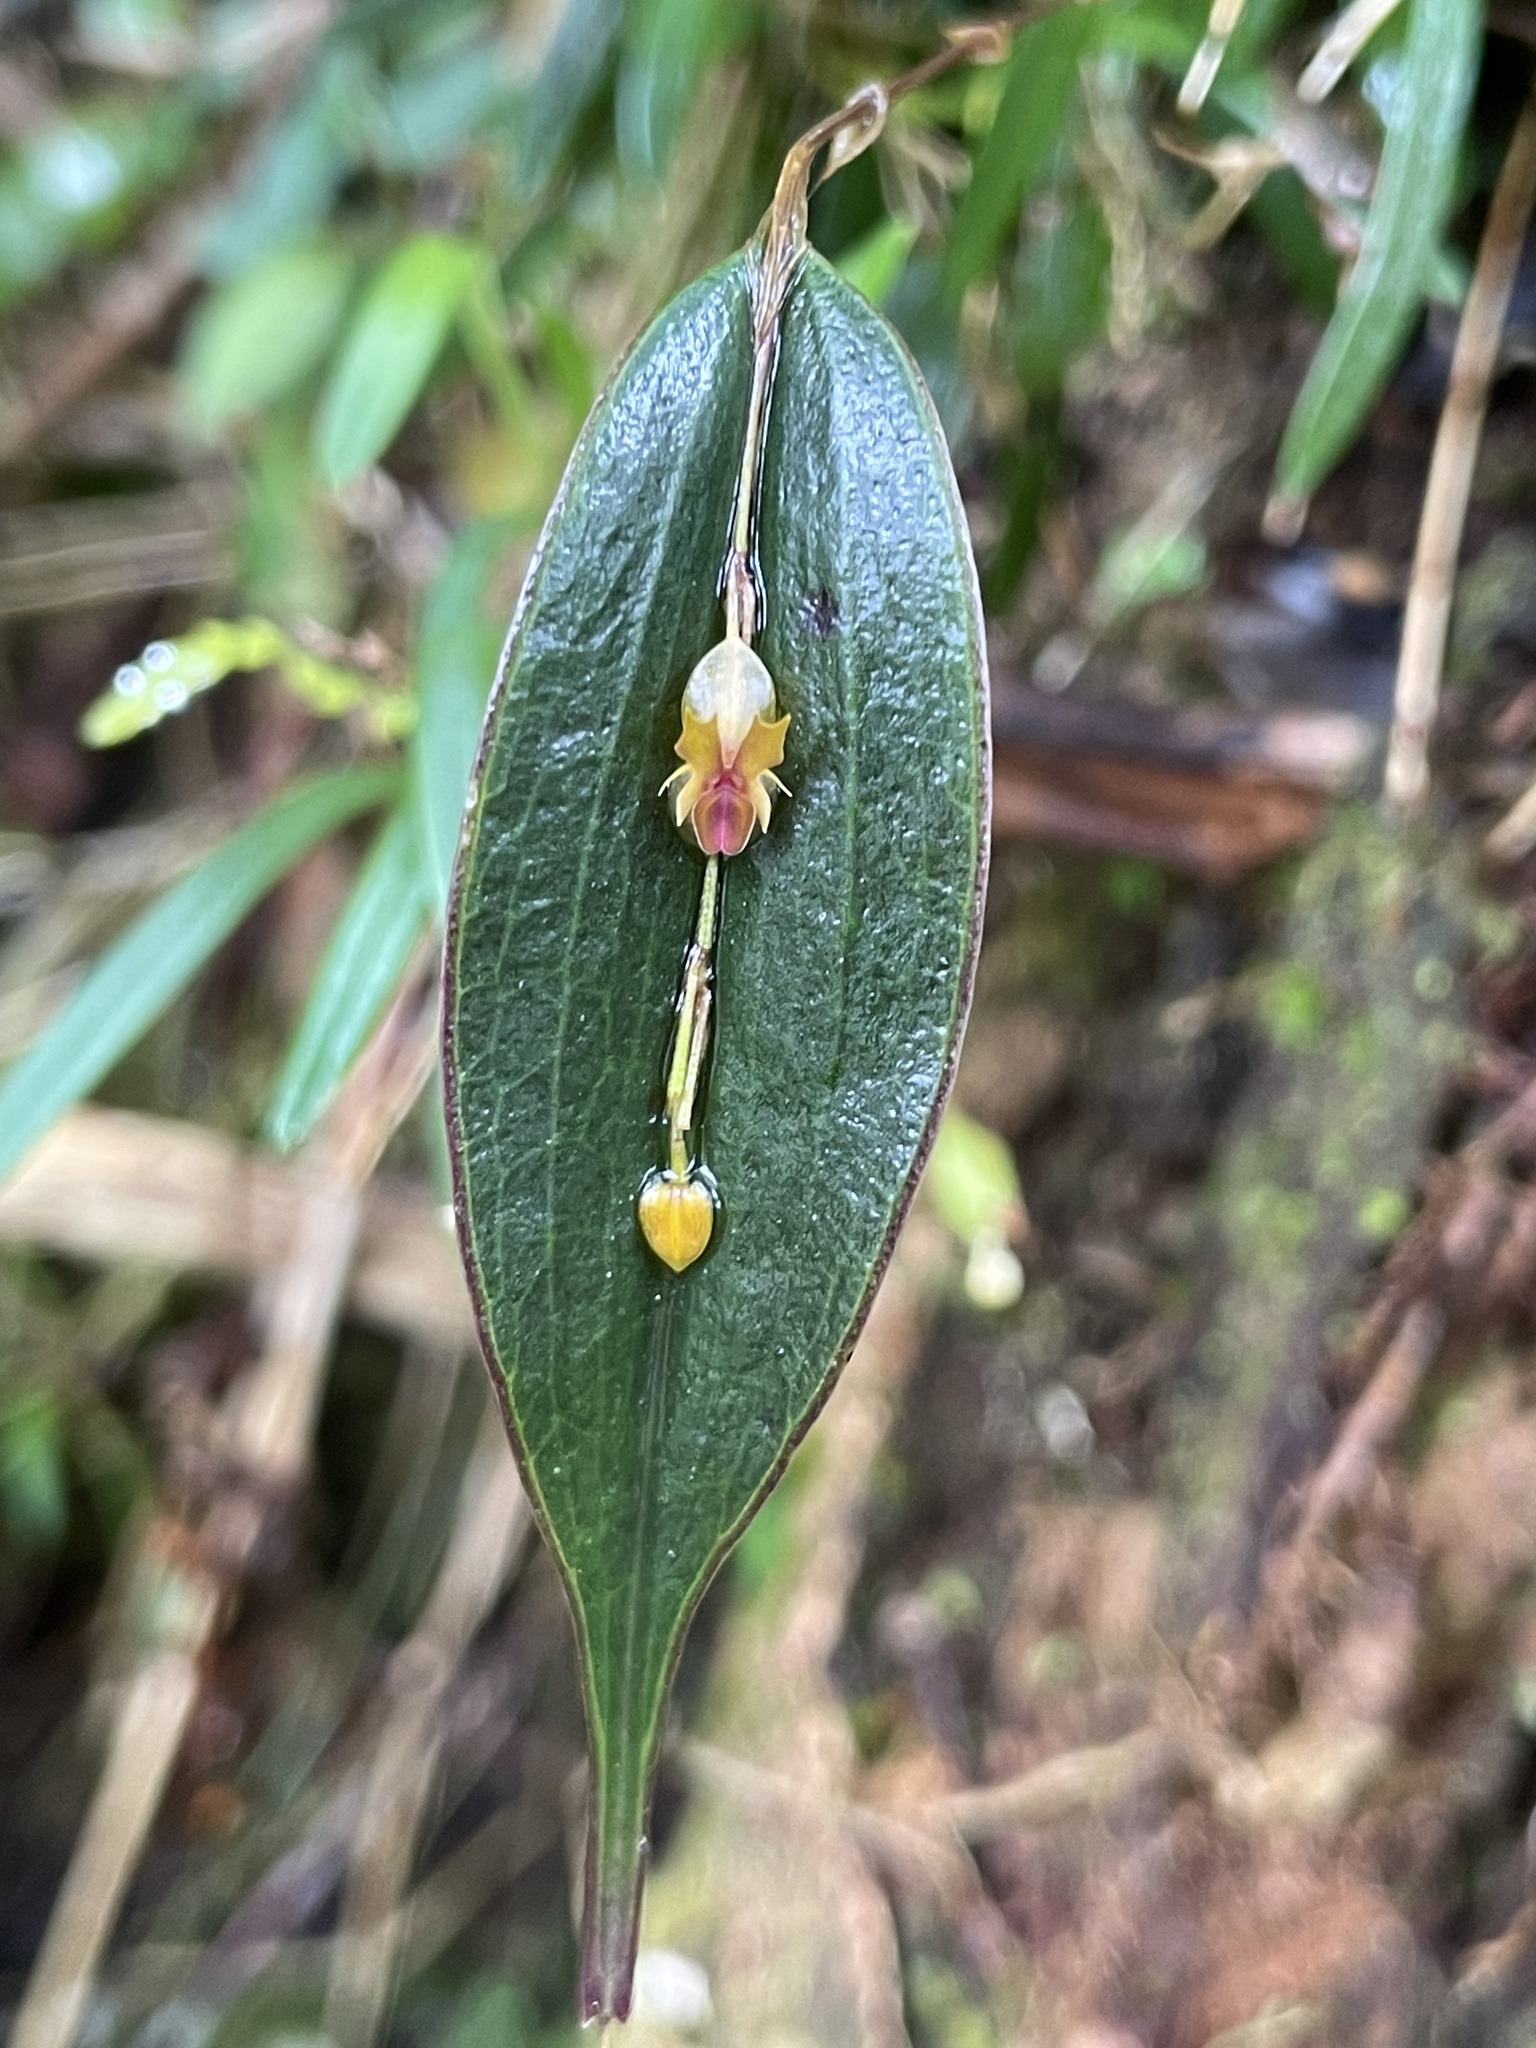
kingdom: Plantae
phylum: Tracheophyta
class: Liliopsida
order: Asparagales
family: Orchidaceae
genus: Lepanthes
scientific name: Lepanthes mucronata
